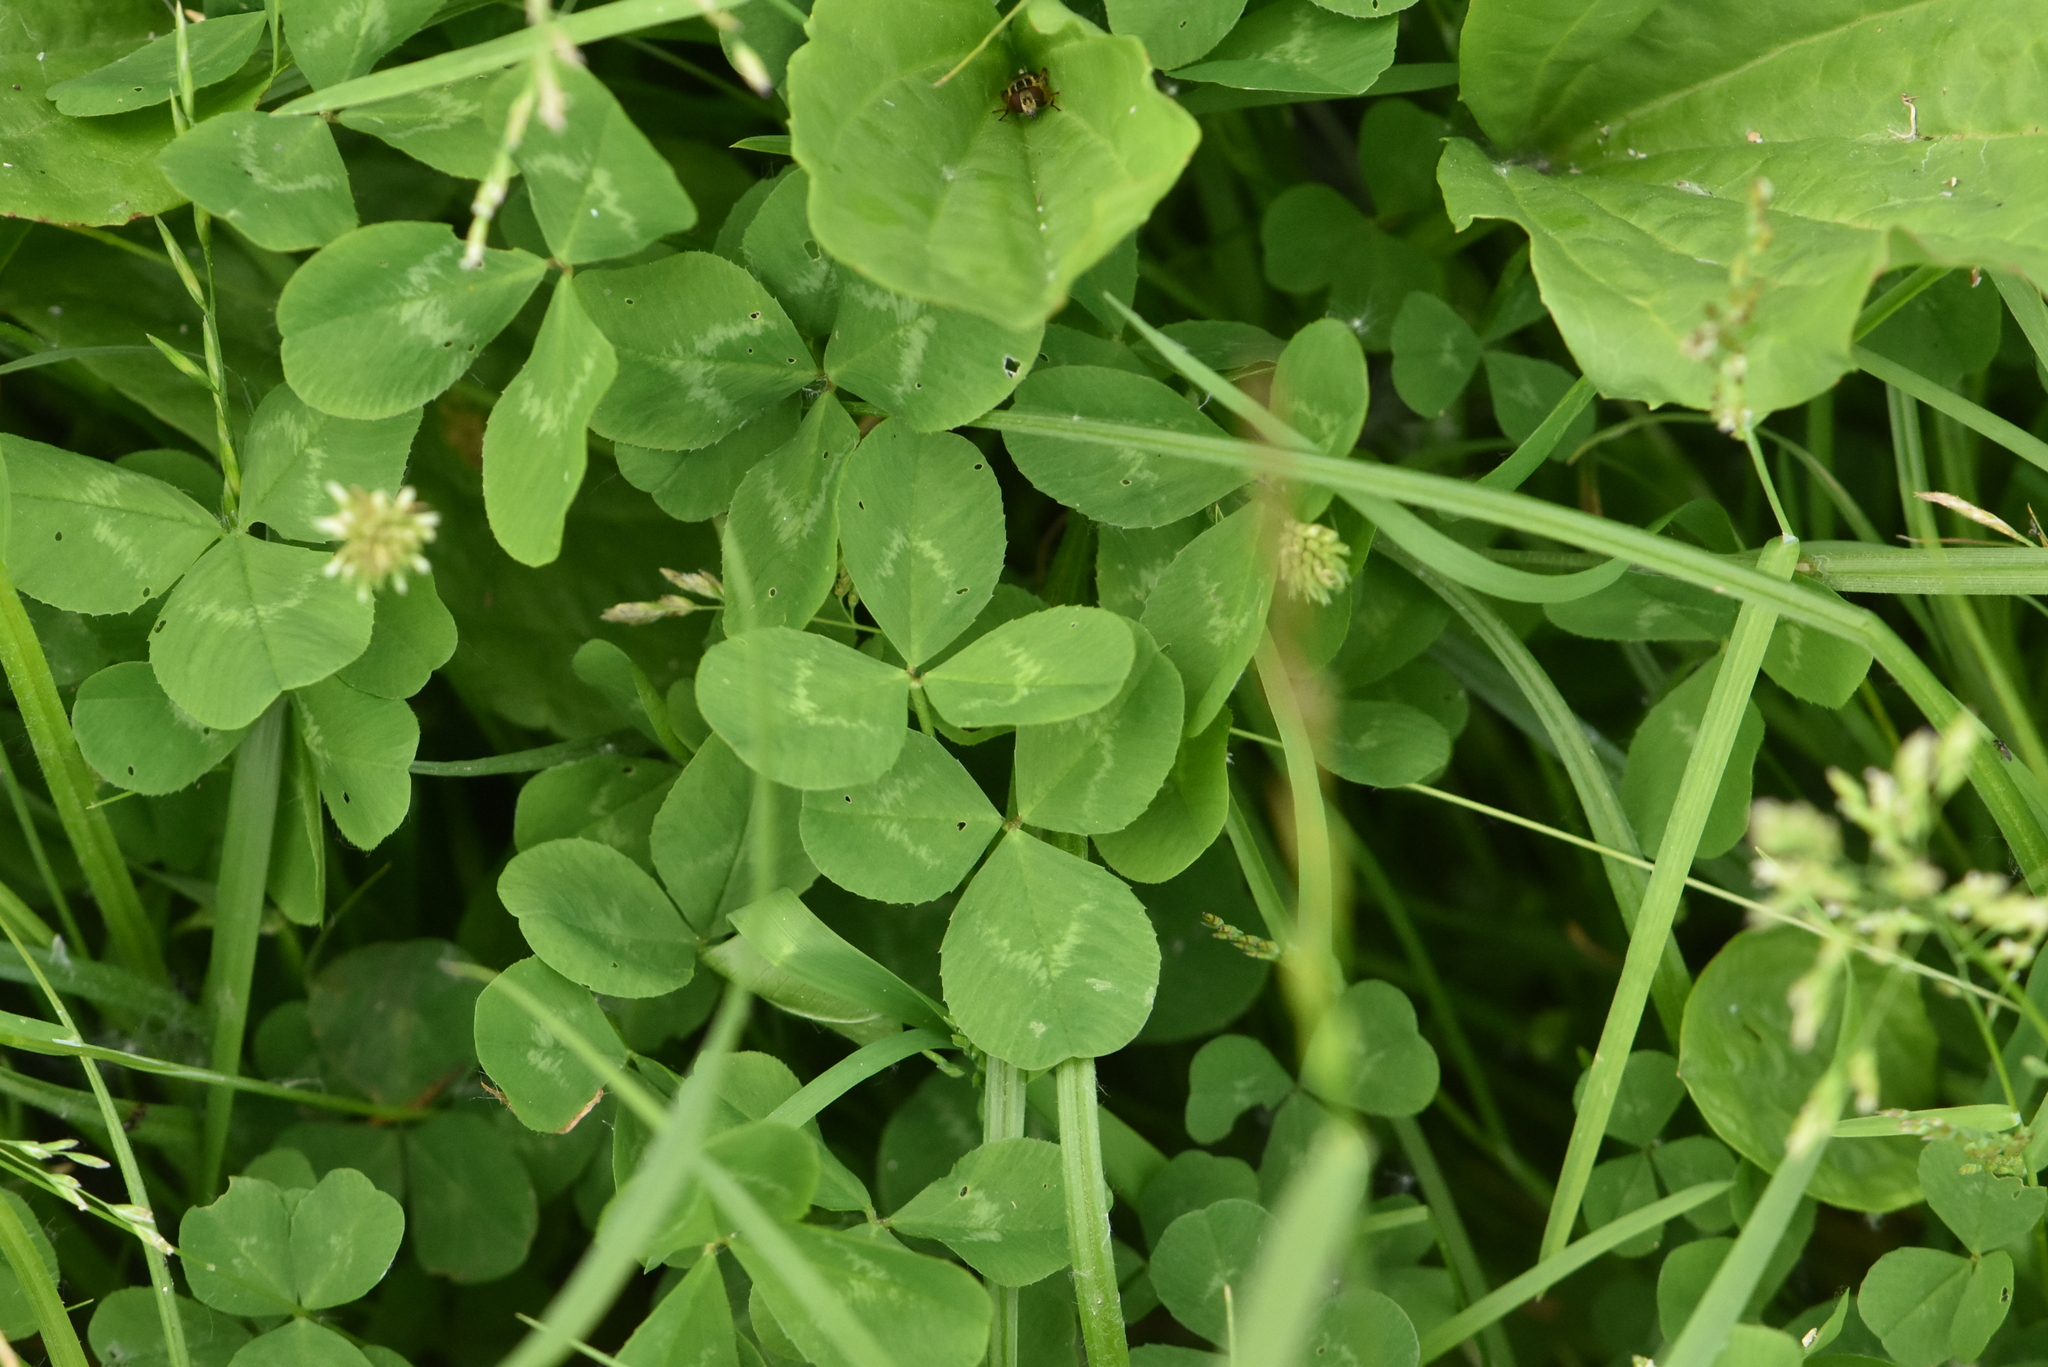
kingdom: Plantae
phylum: Tracheophyta
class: Magnoliopsida
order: Fabales
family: Fabaceae
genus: Trifolium
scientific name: Trifolium repens
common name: White clover
